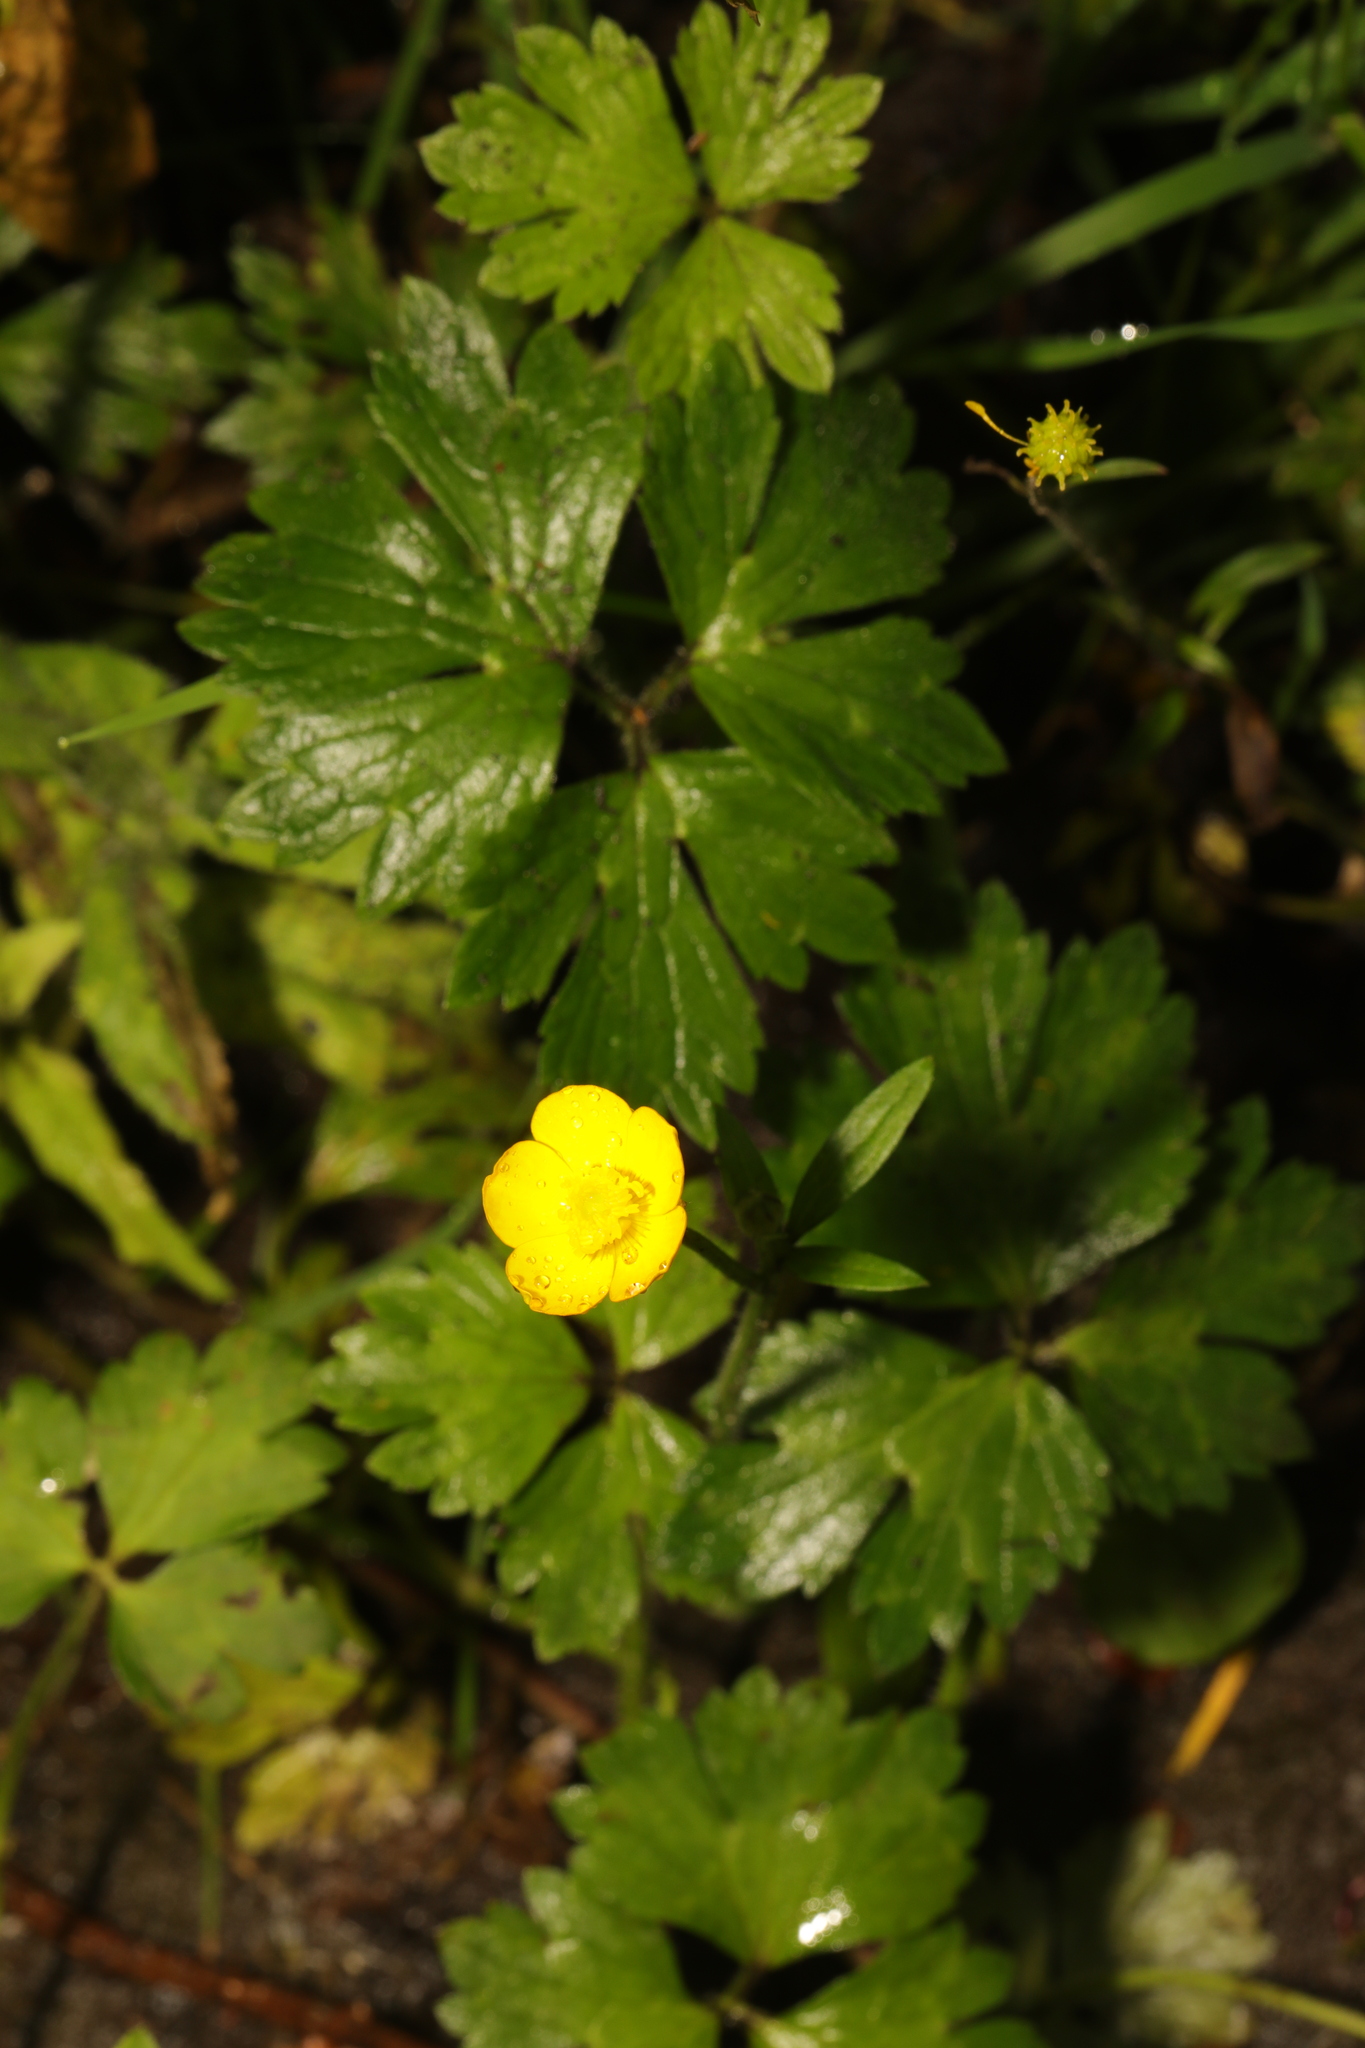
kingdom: Plantae
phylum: Tracheophyta
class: Magnoliopsida
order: Ranunculales
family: Ranunculaceae
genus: Ranunculus
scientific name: Ranunculus repens
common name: Creeping buttercup
